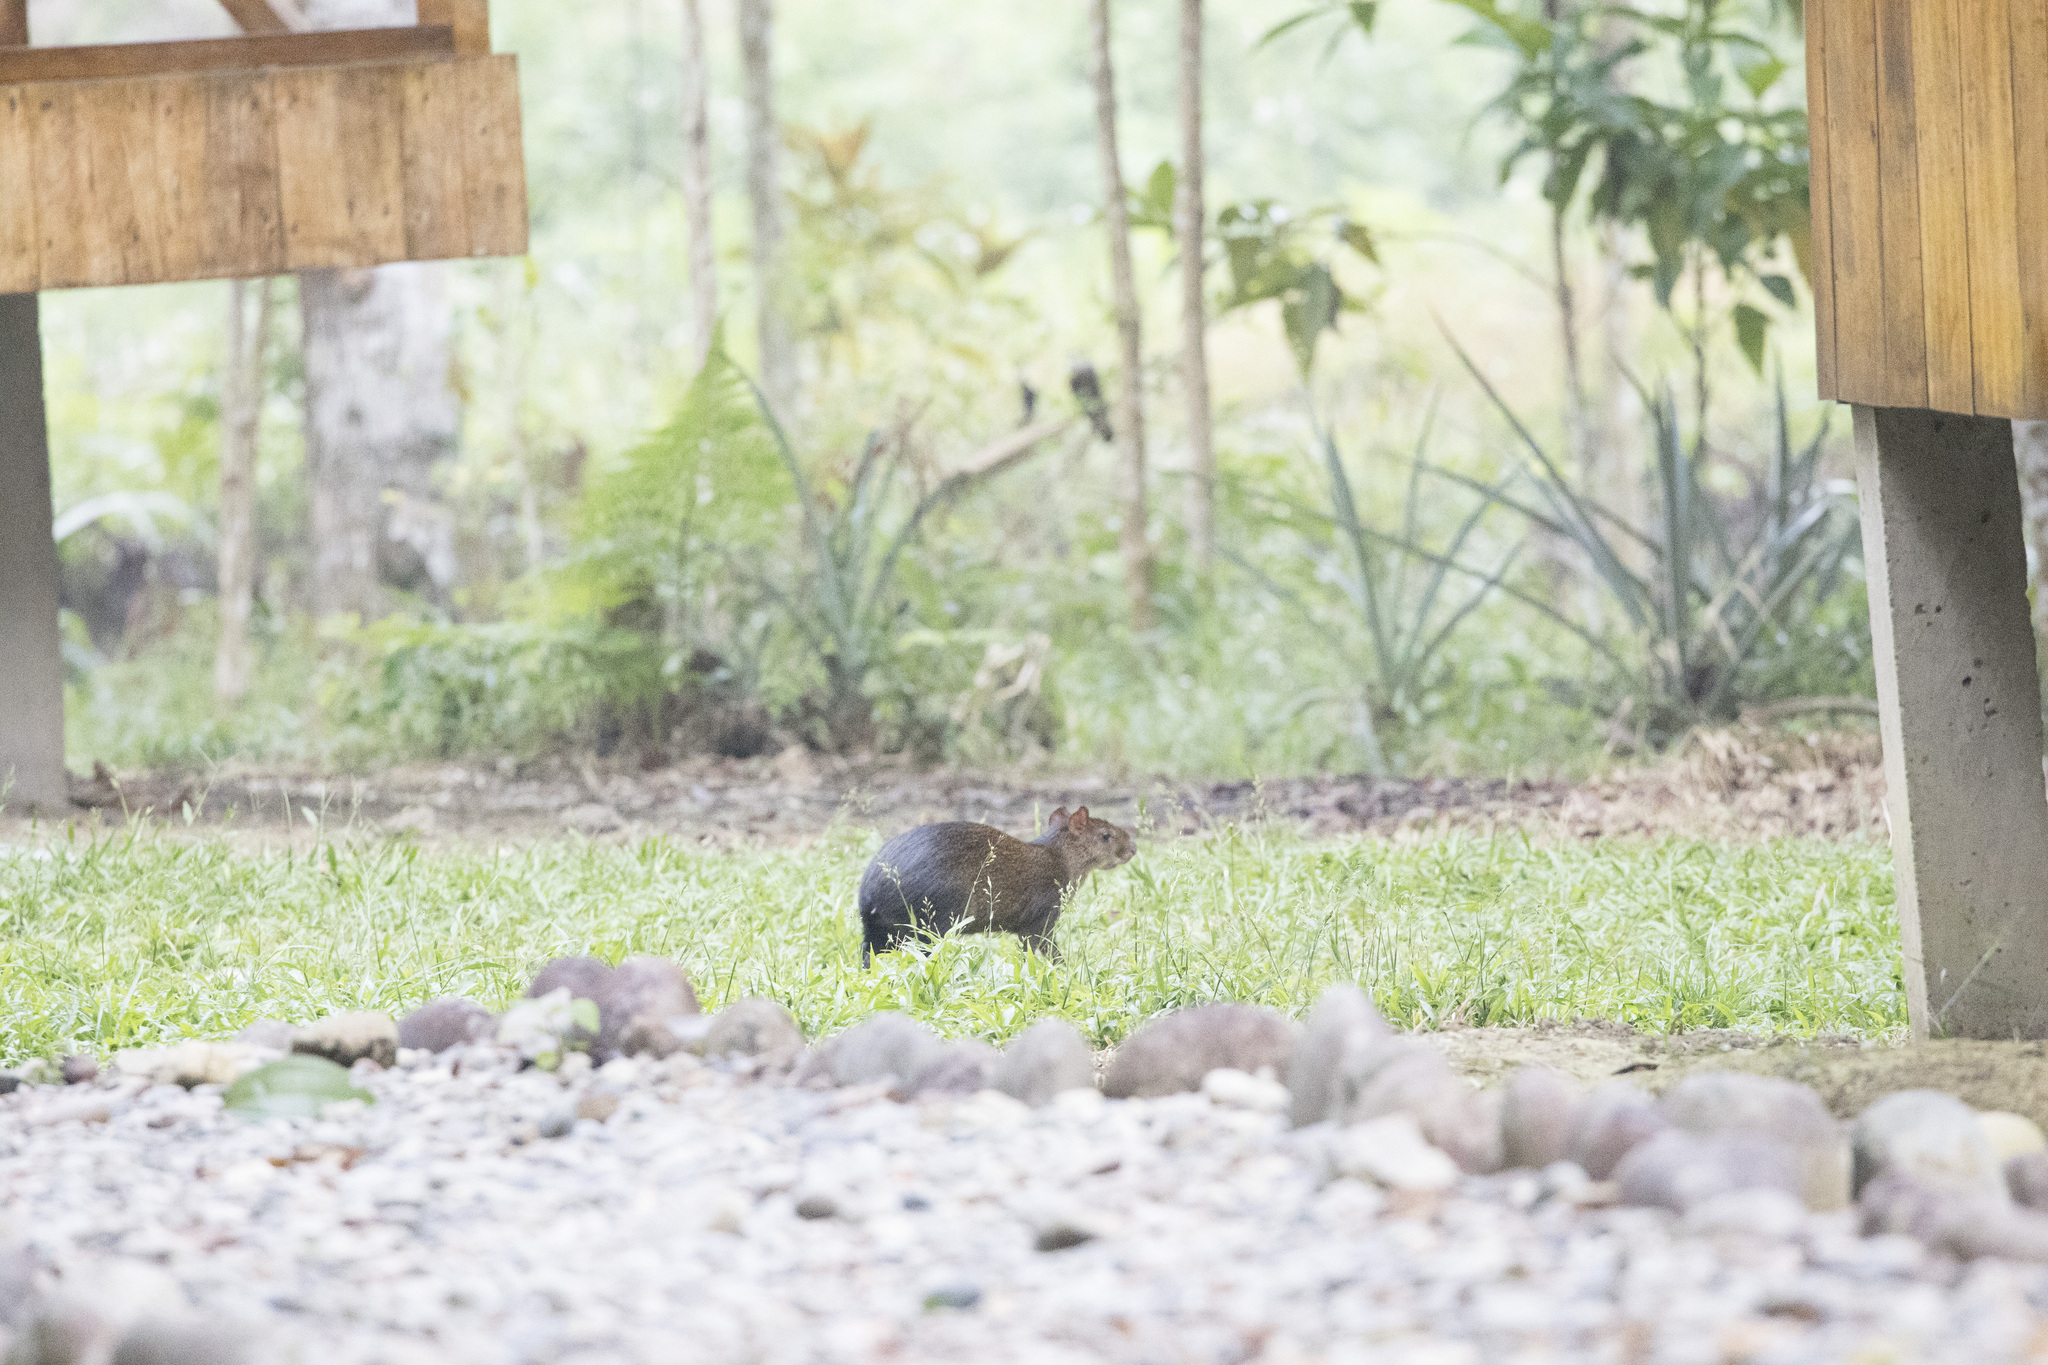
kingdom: Animalia
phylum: Chordata
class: Mammalia
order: Rodentia
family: Dasyproctidae
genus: Dasyprocta
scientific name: Dasyprocta variegata
